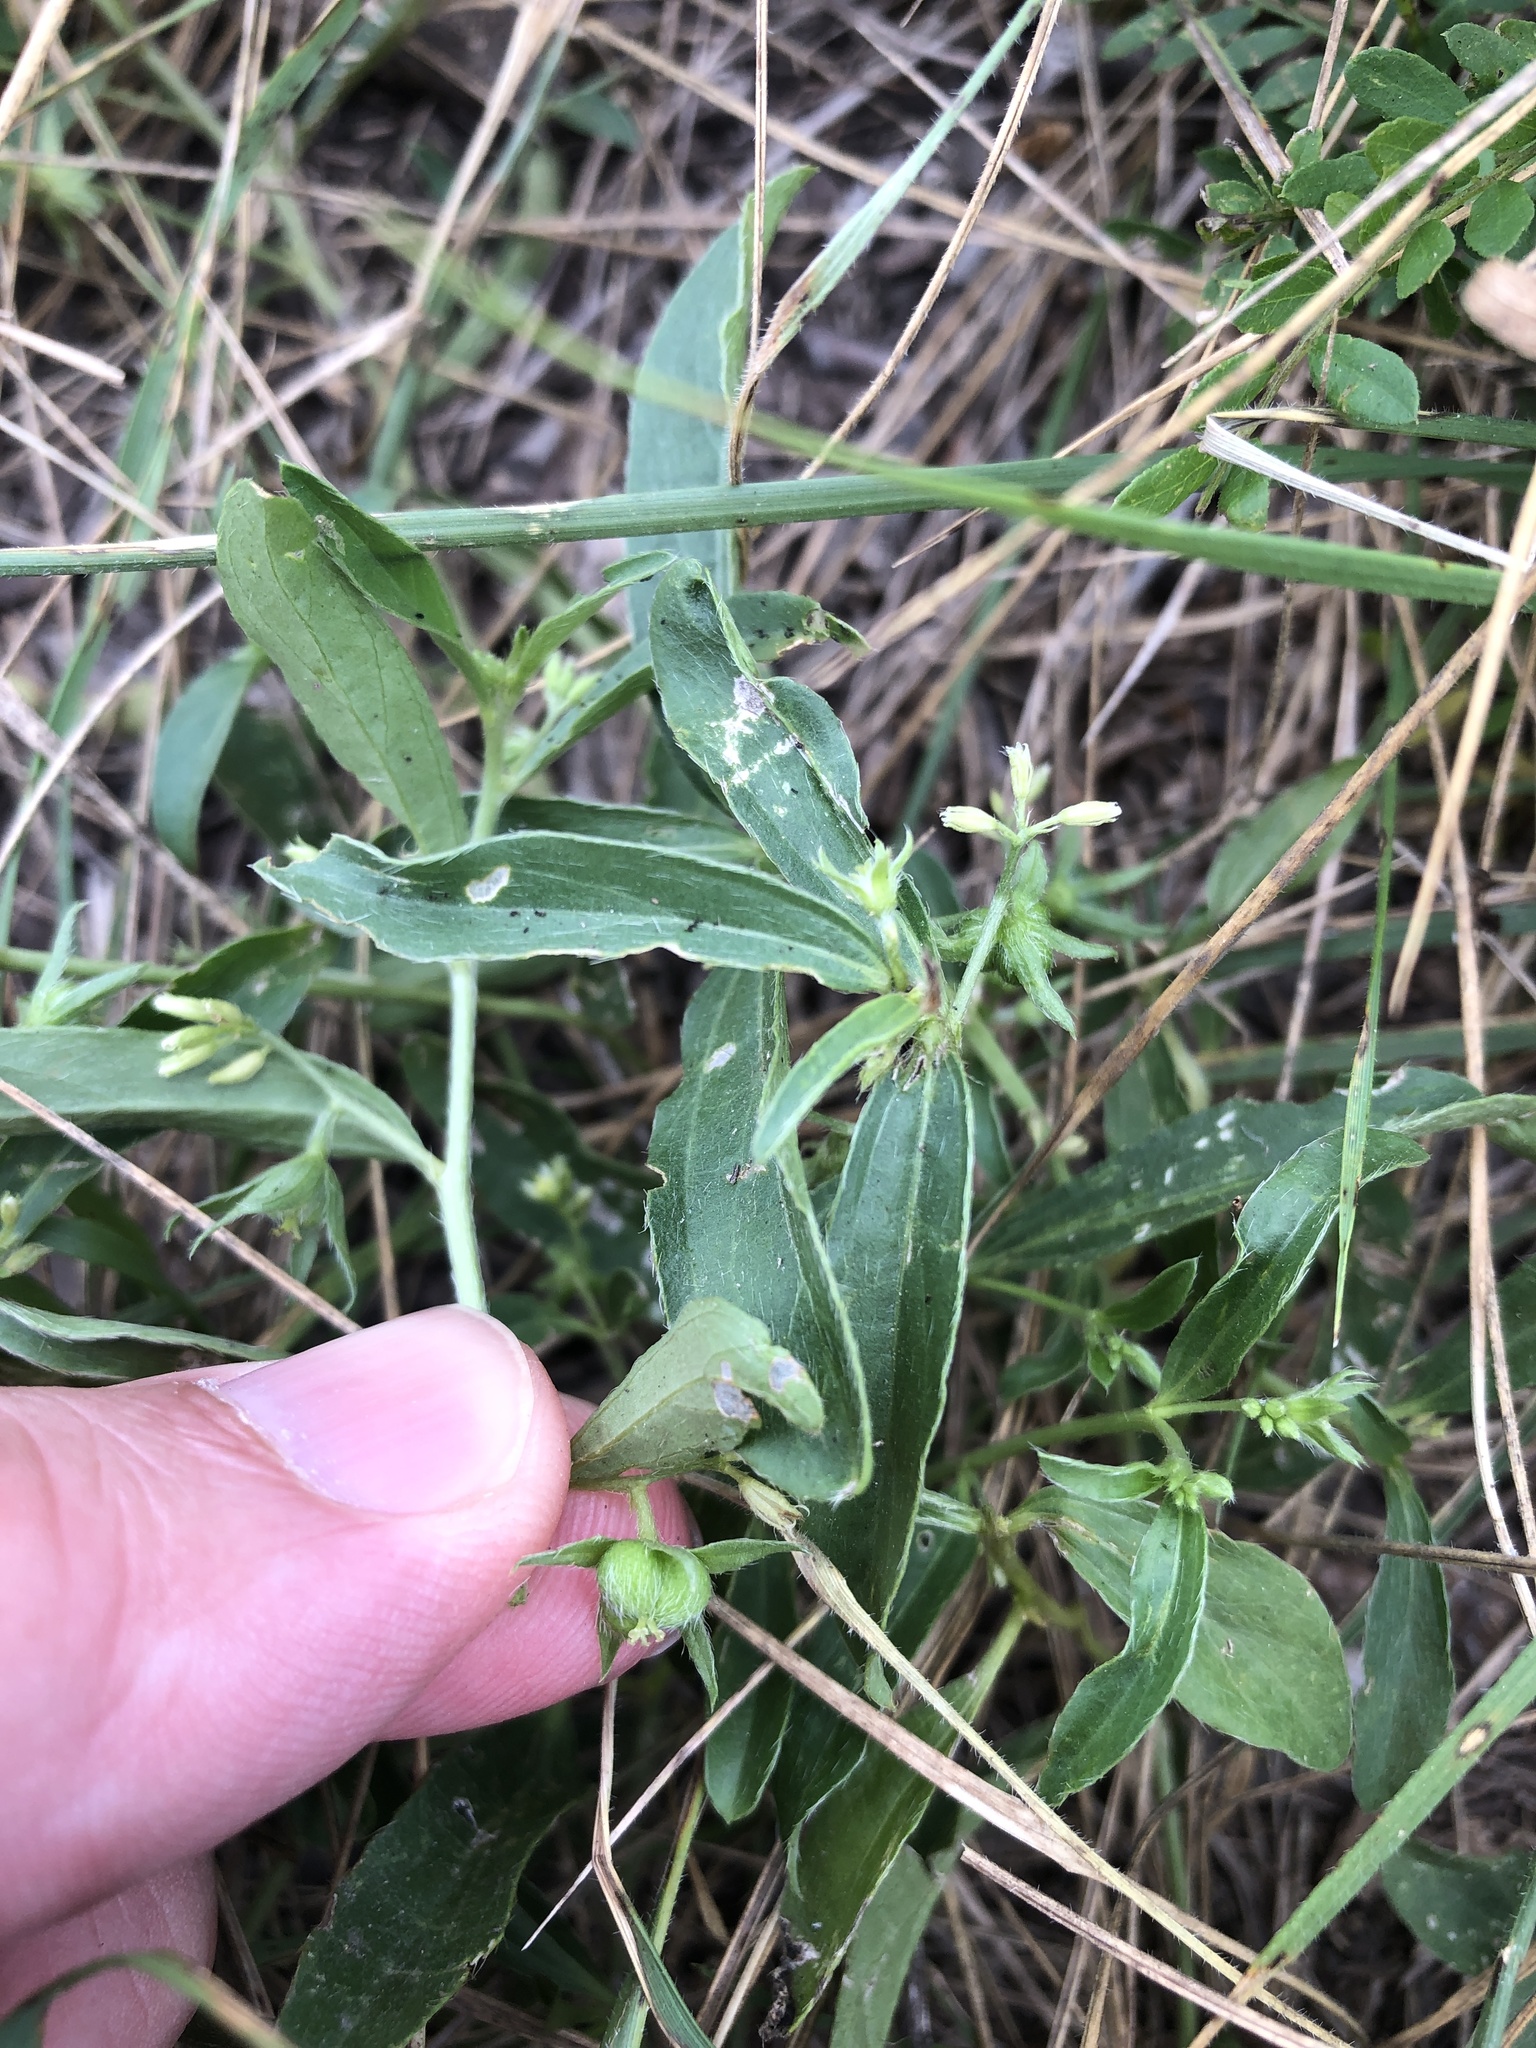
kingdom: Plantae
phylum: Tracheophyta
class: Magnoliopsida
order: Malpighiales
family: Euphorbiaceae
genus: Ditaxis
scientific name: Ditaxis humilis
